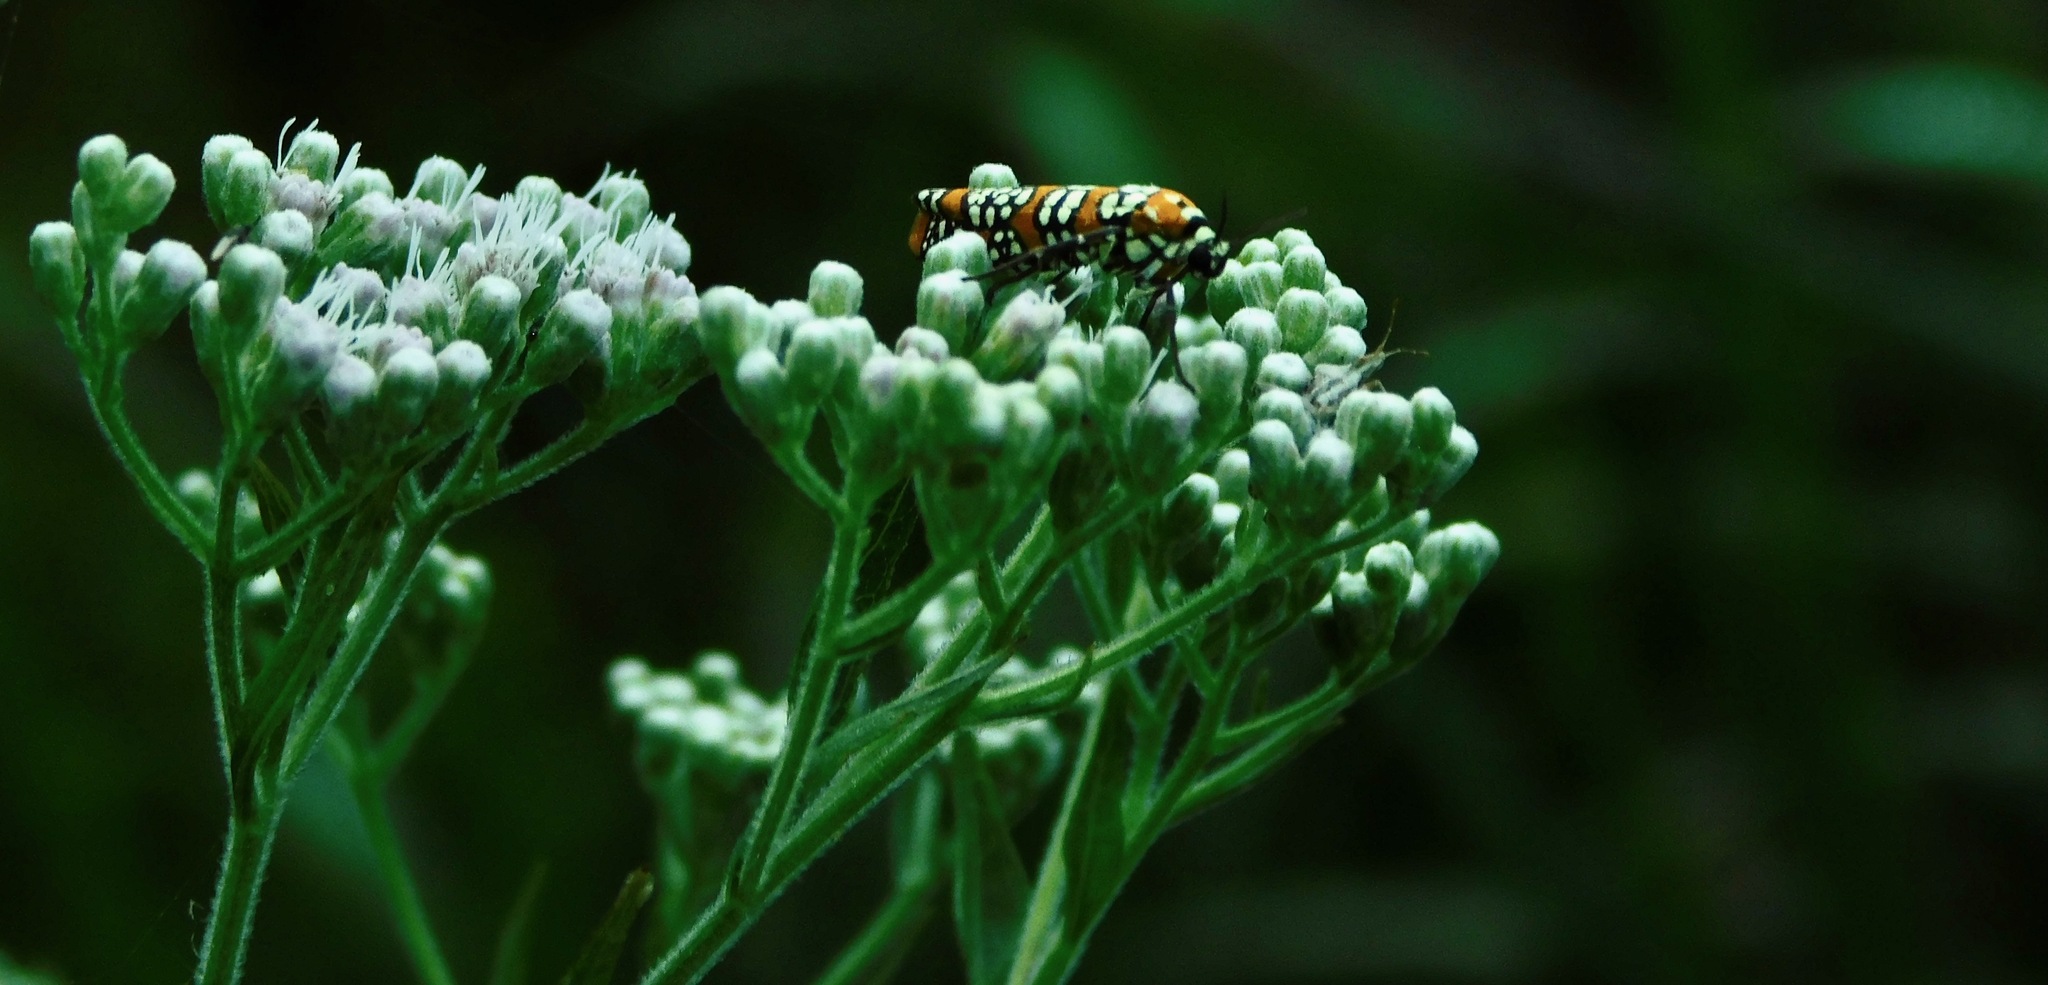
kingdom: Animalia
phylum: Arthropoda
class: Insecta
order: Lepidoptera
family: Attevidae
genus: Atteva
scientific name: Atteva punctella
